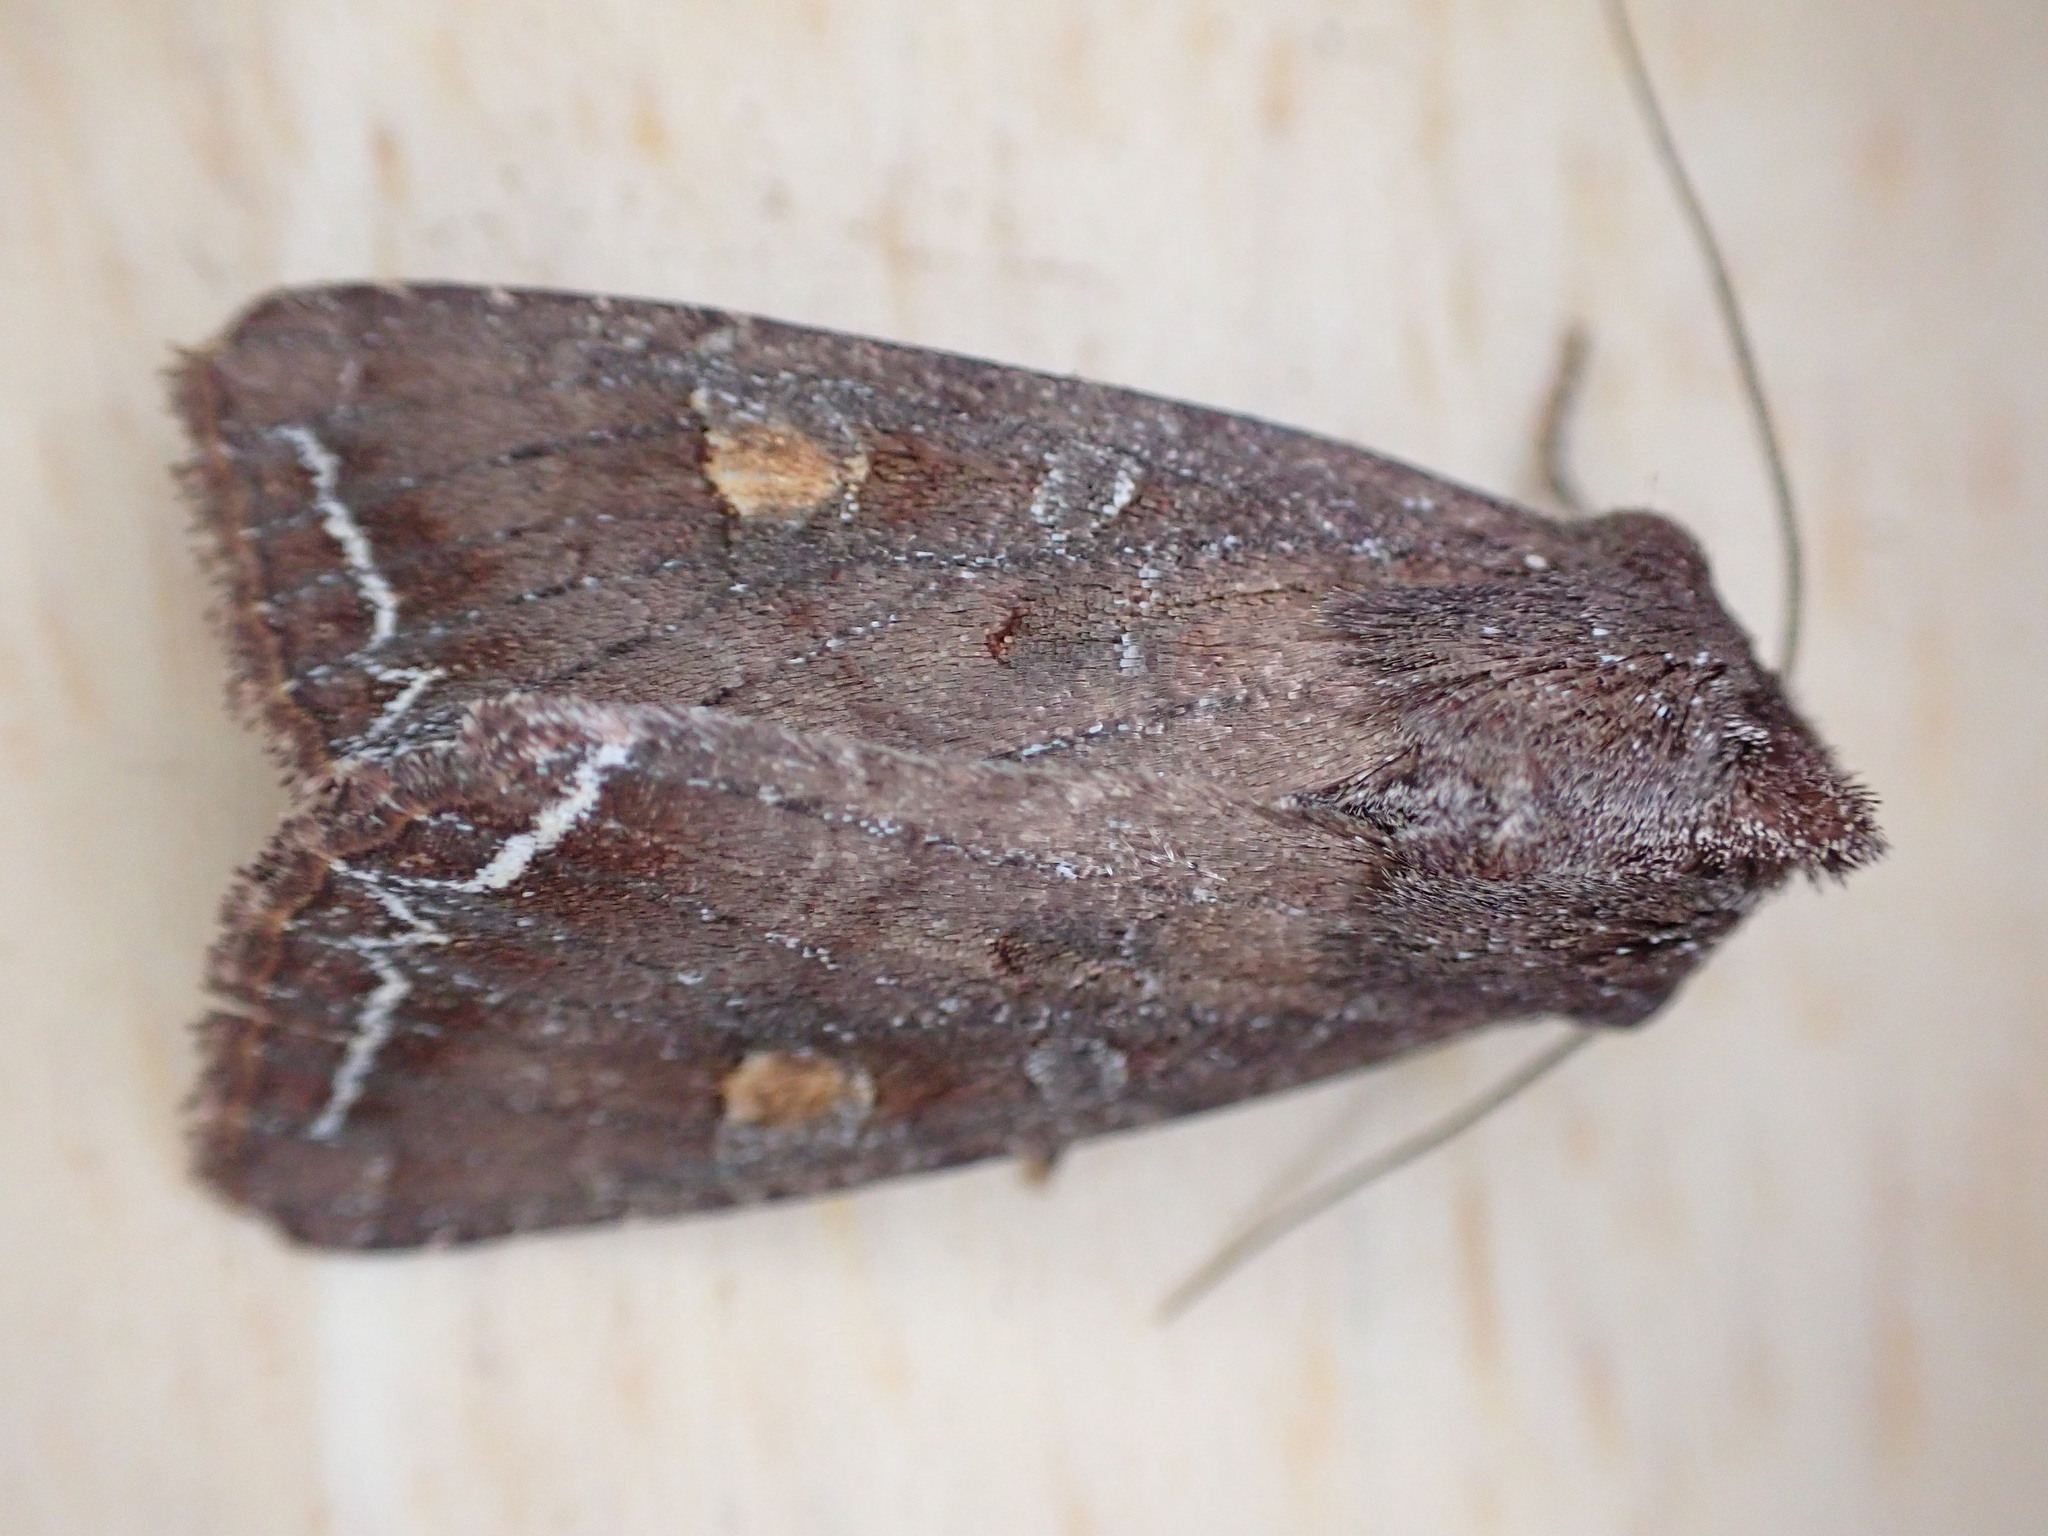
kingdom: Animalia
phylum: Arthropoda
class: Insecta
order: Lepidoptera
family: Noctuidae
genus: Lacanobia
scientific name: Lacanobia oleracea
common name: Bright-line brown-eye
